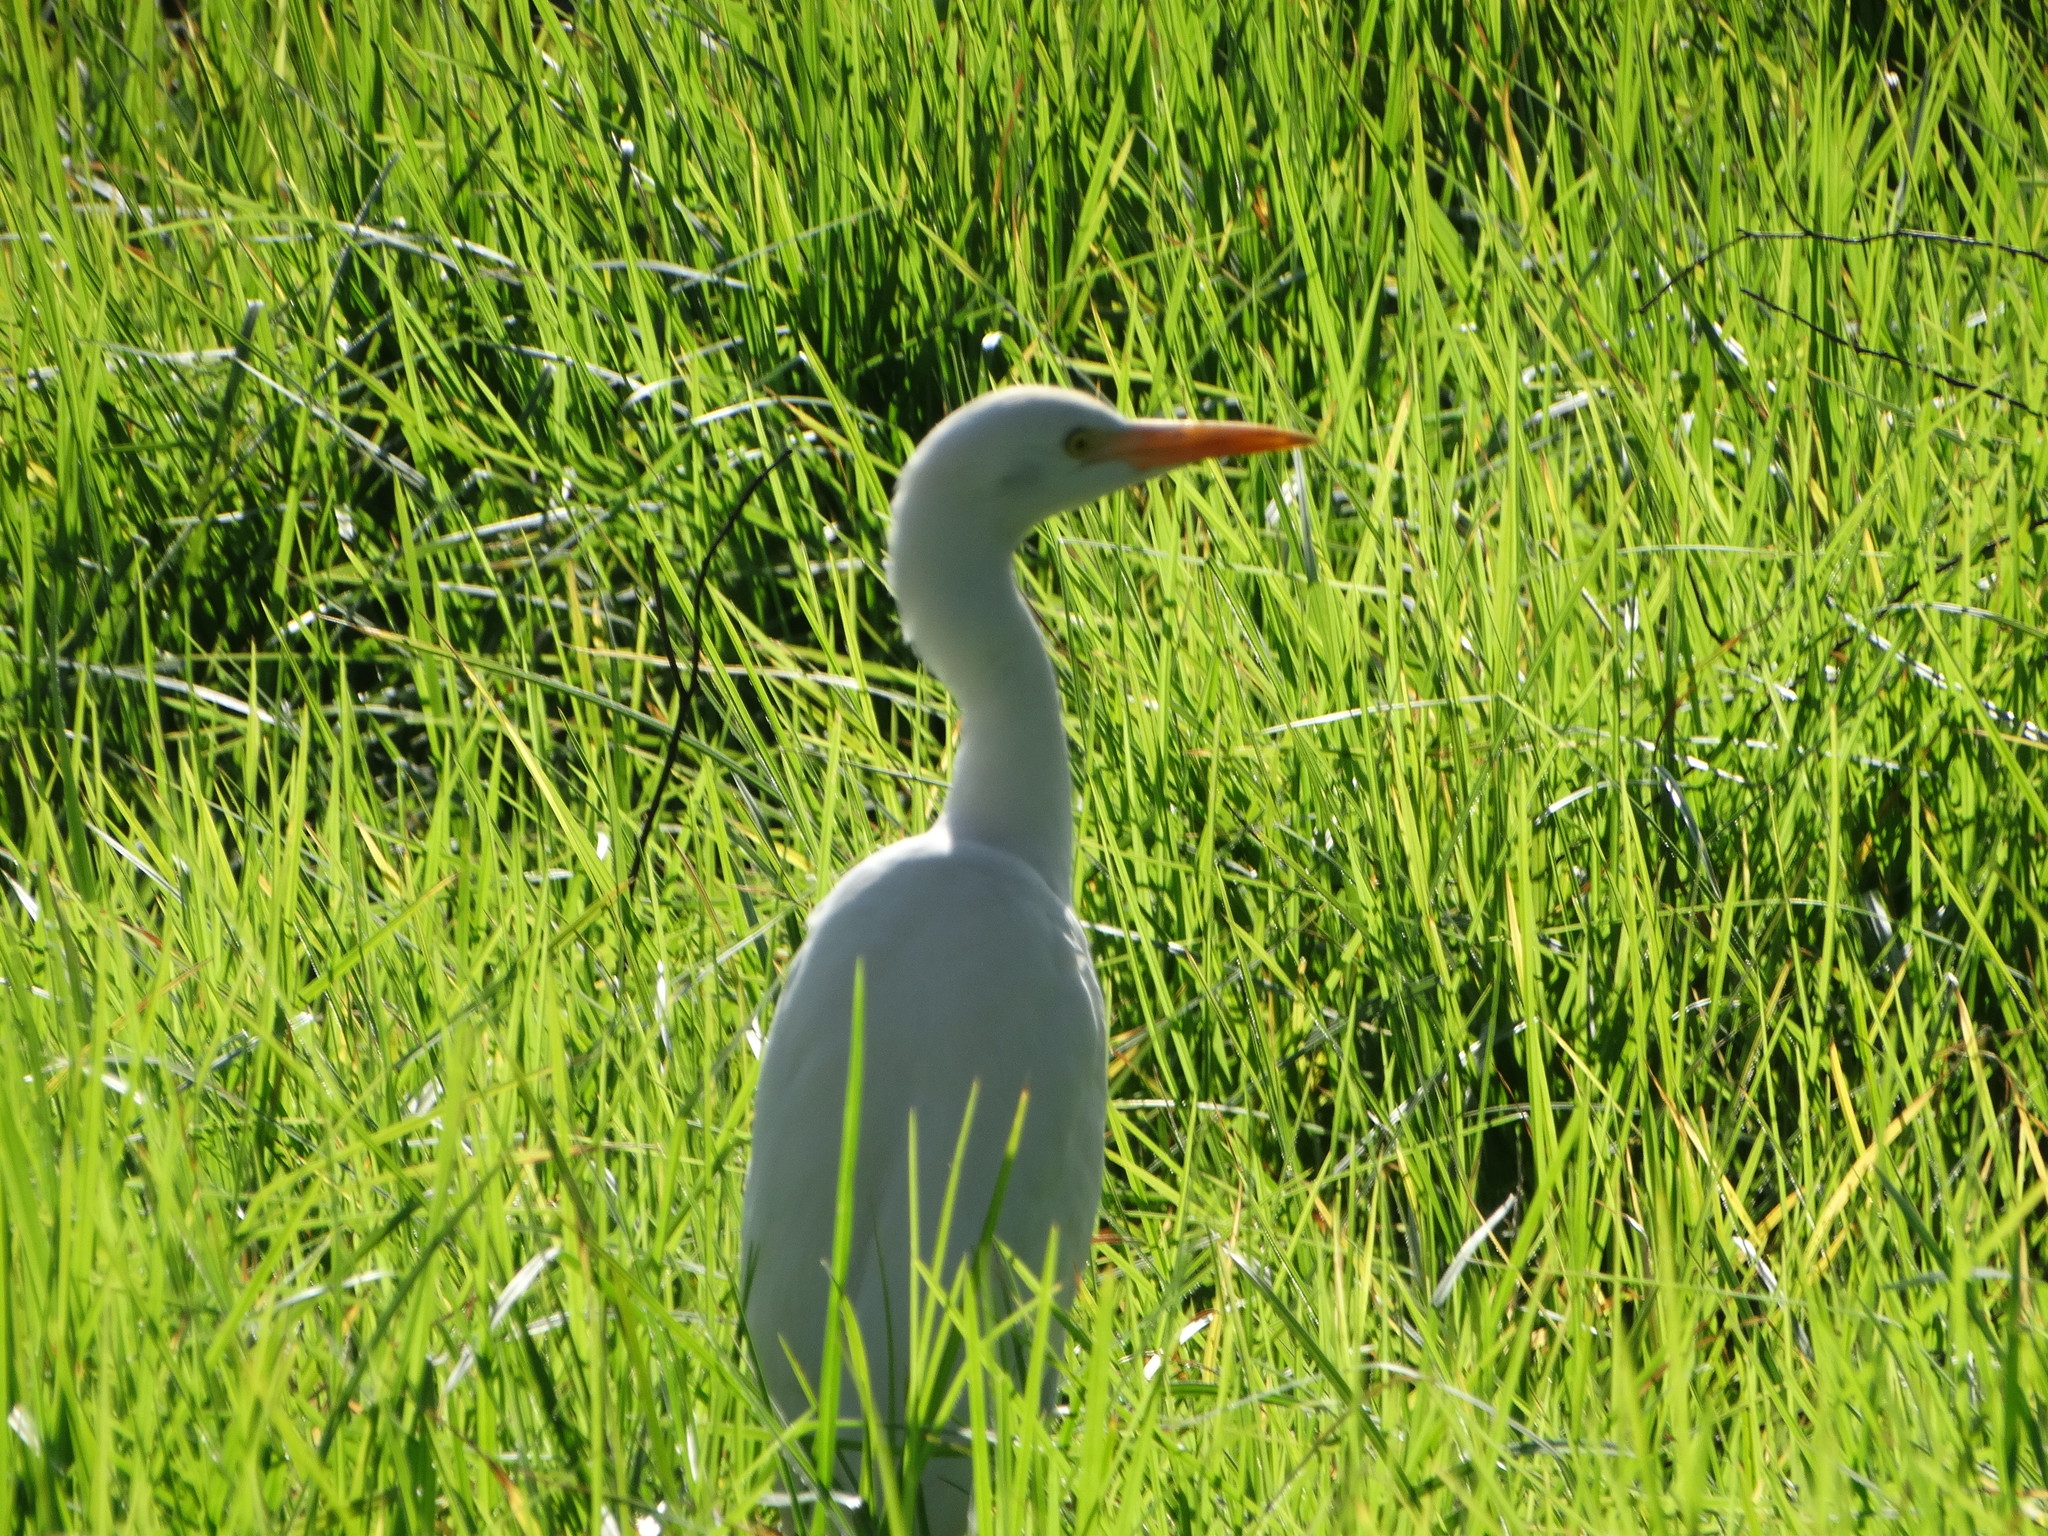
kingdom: Animalia
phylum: Chordata
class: Aves
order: Pelecaniformes
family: Ardeidae
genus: Bubulcus
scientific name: Bubulcus ibis
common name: Cattle egret
